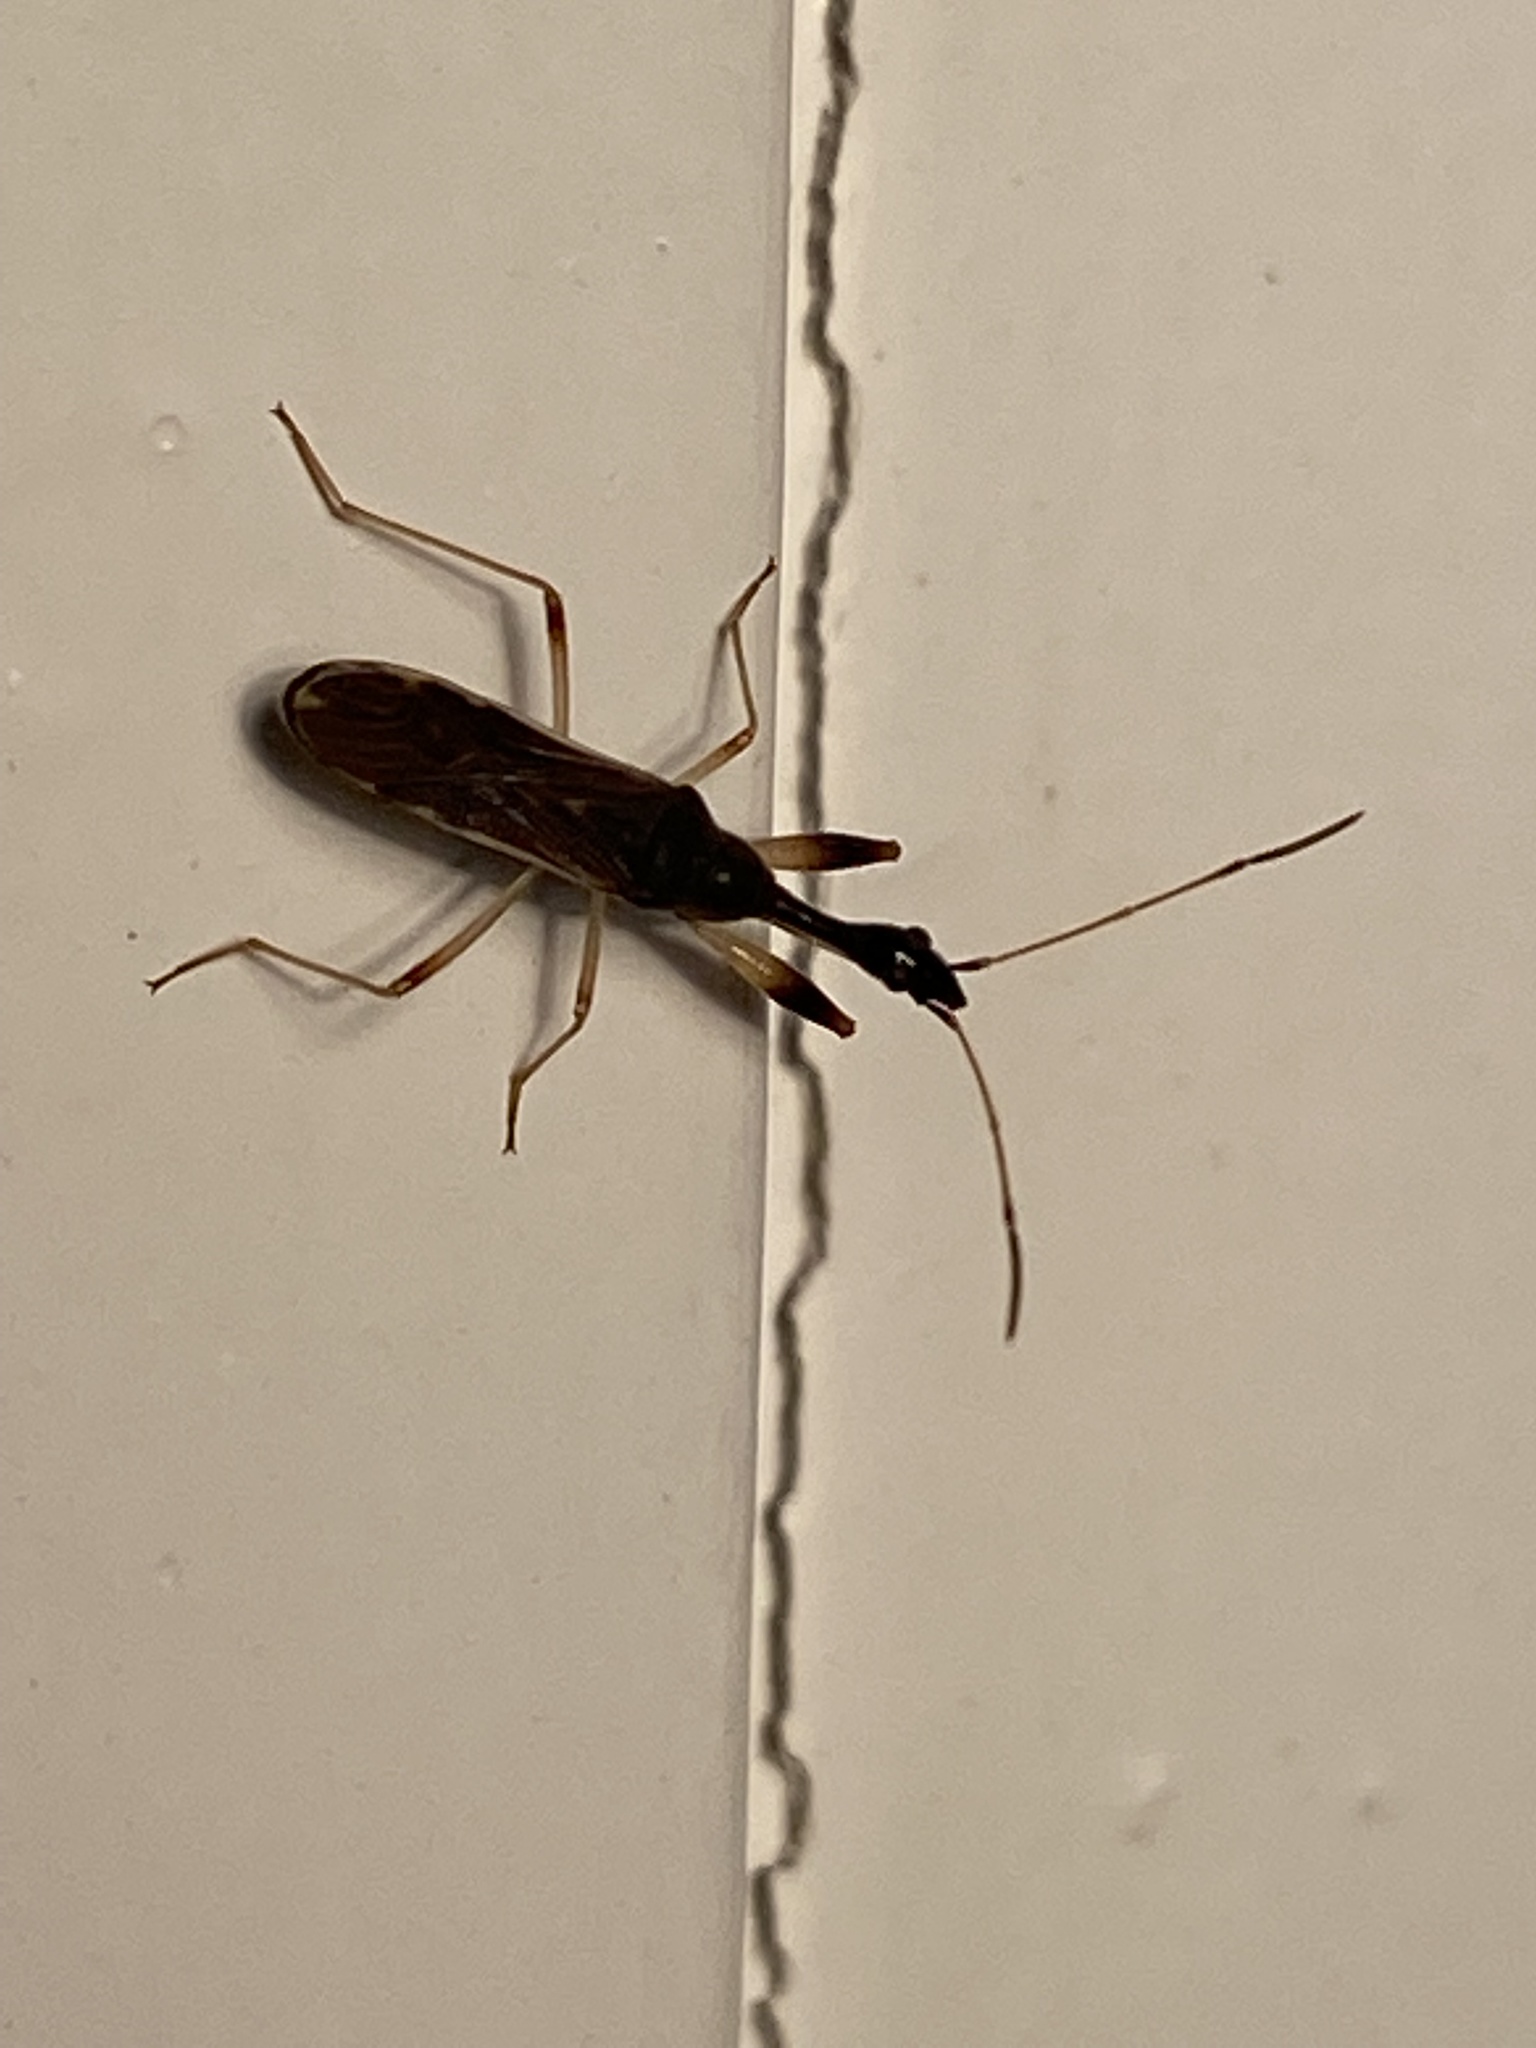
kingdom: Animalia
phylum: Arthropoda
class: Insecta
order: Hemiptera
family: Rhyparochromidae
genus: Myodocha
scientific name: Myodocha serripes
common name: Long-necked seed bug
